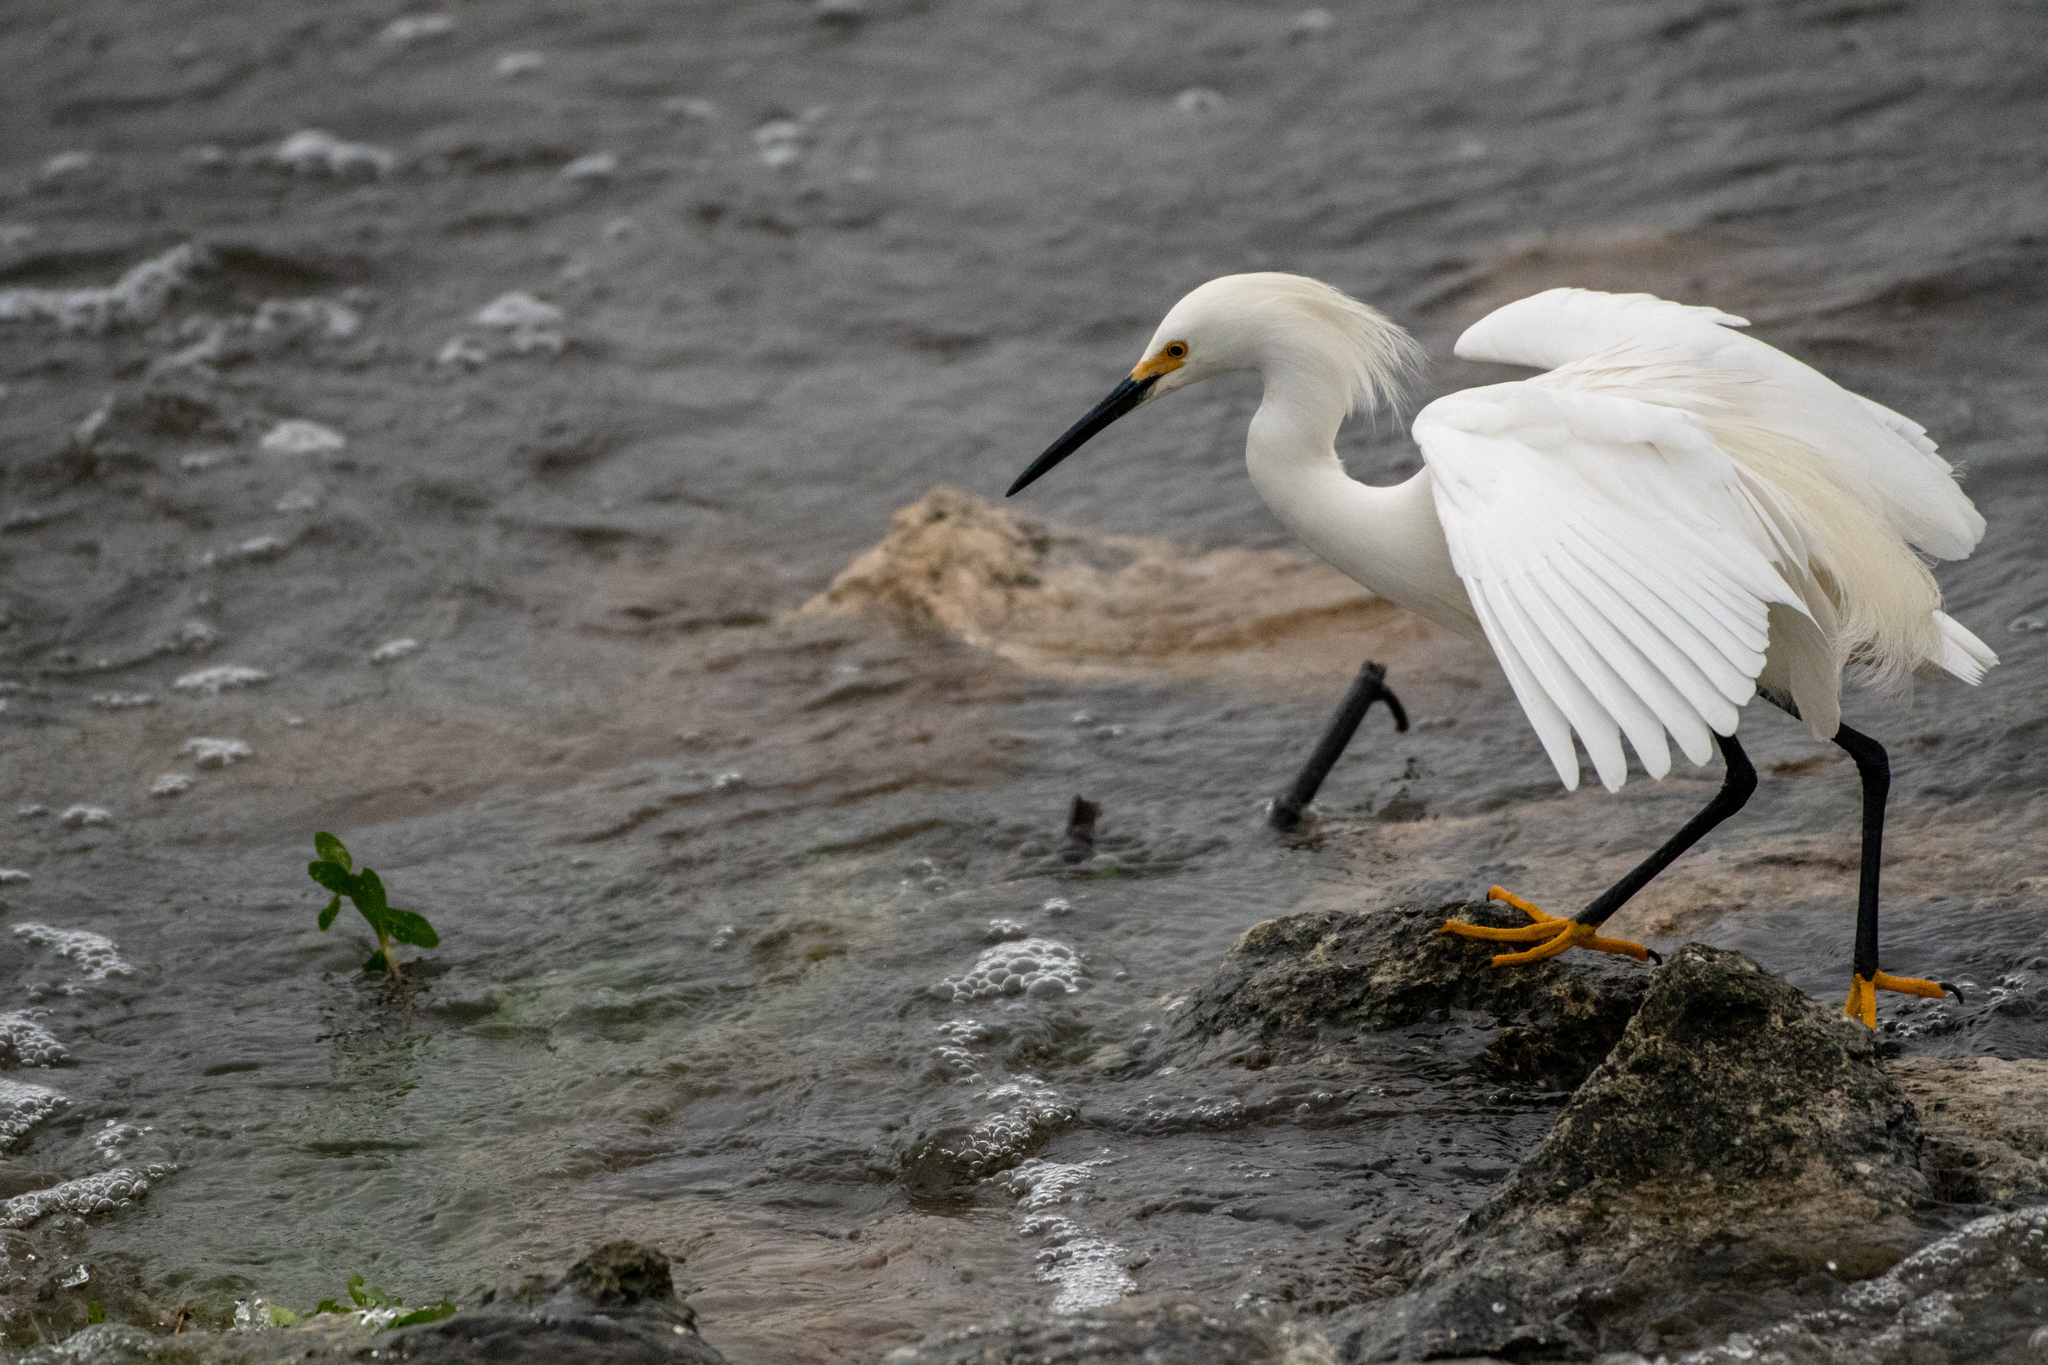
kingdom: Animalia
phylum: Chordata
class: Aves
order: Pelecaniformes
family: Ardeidae
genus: Egretta
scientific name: Egretta thula
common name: Snowy egret
